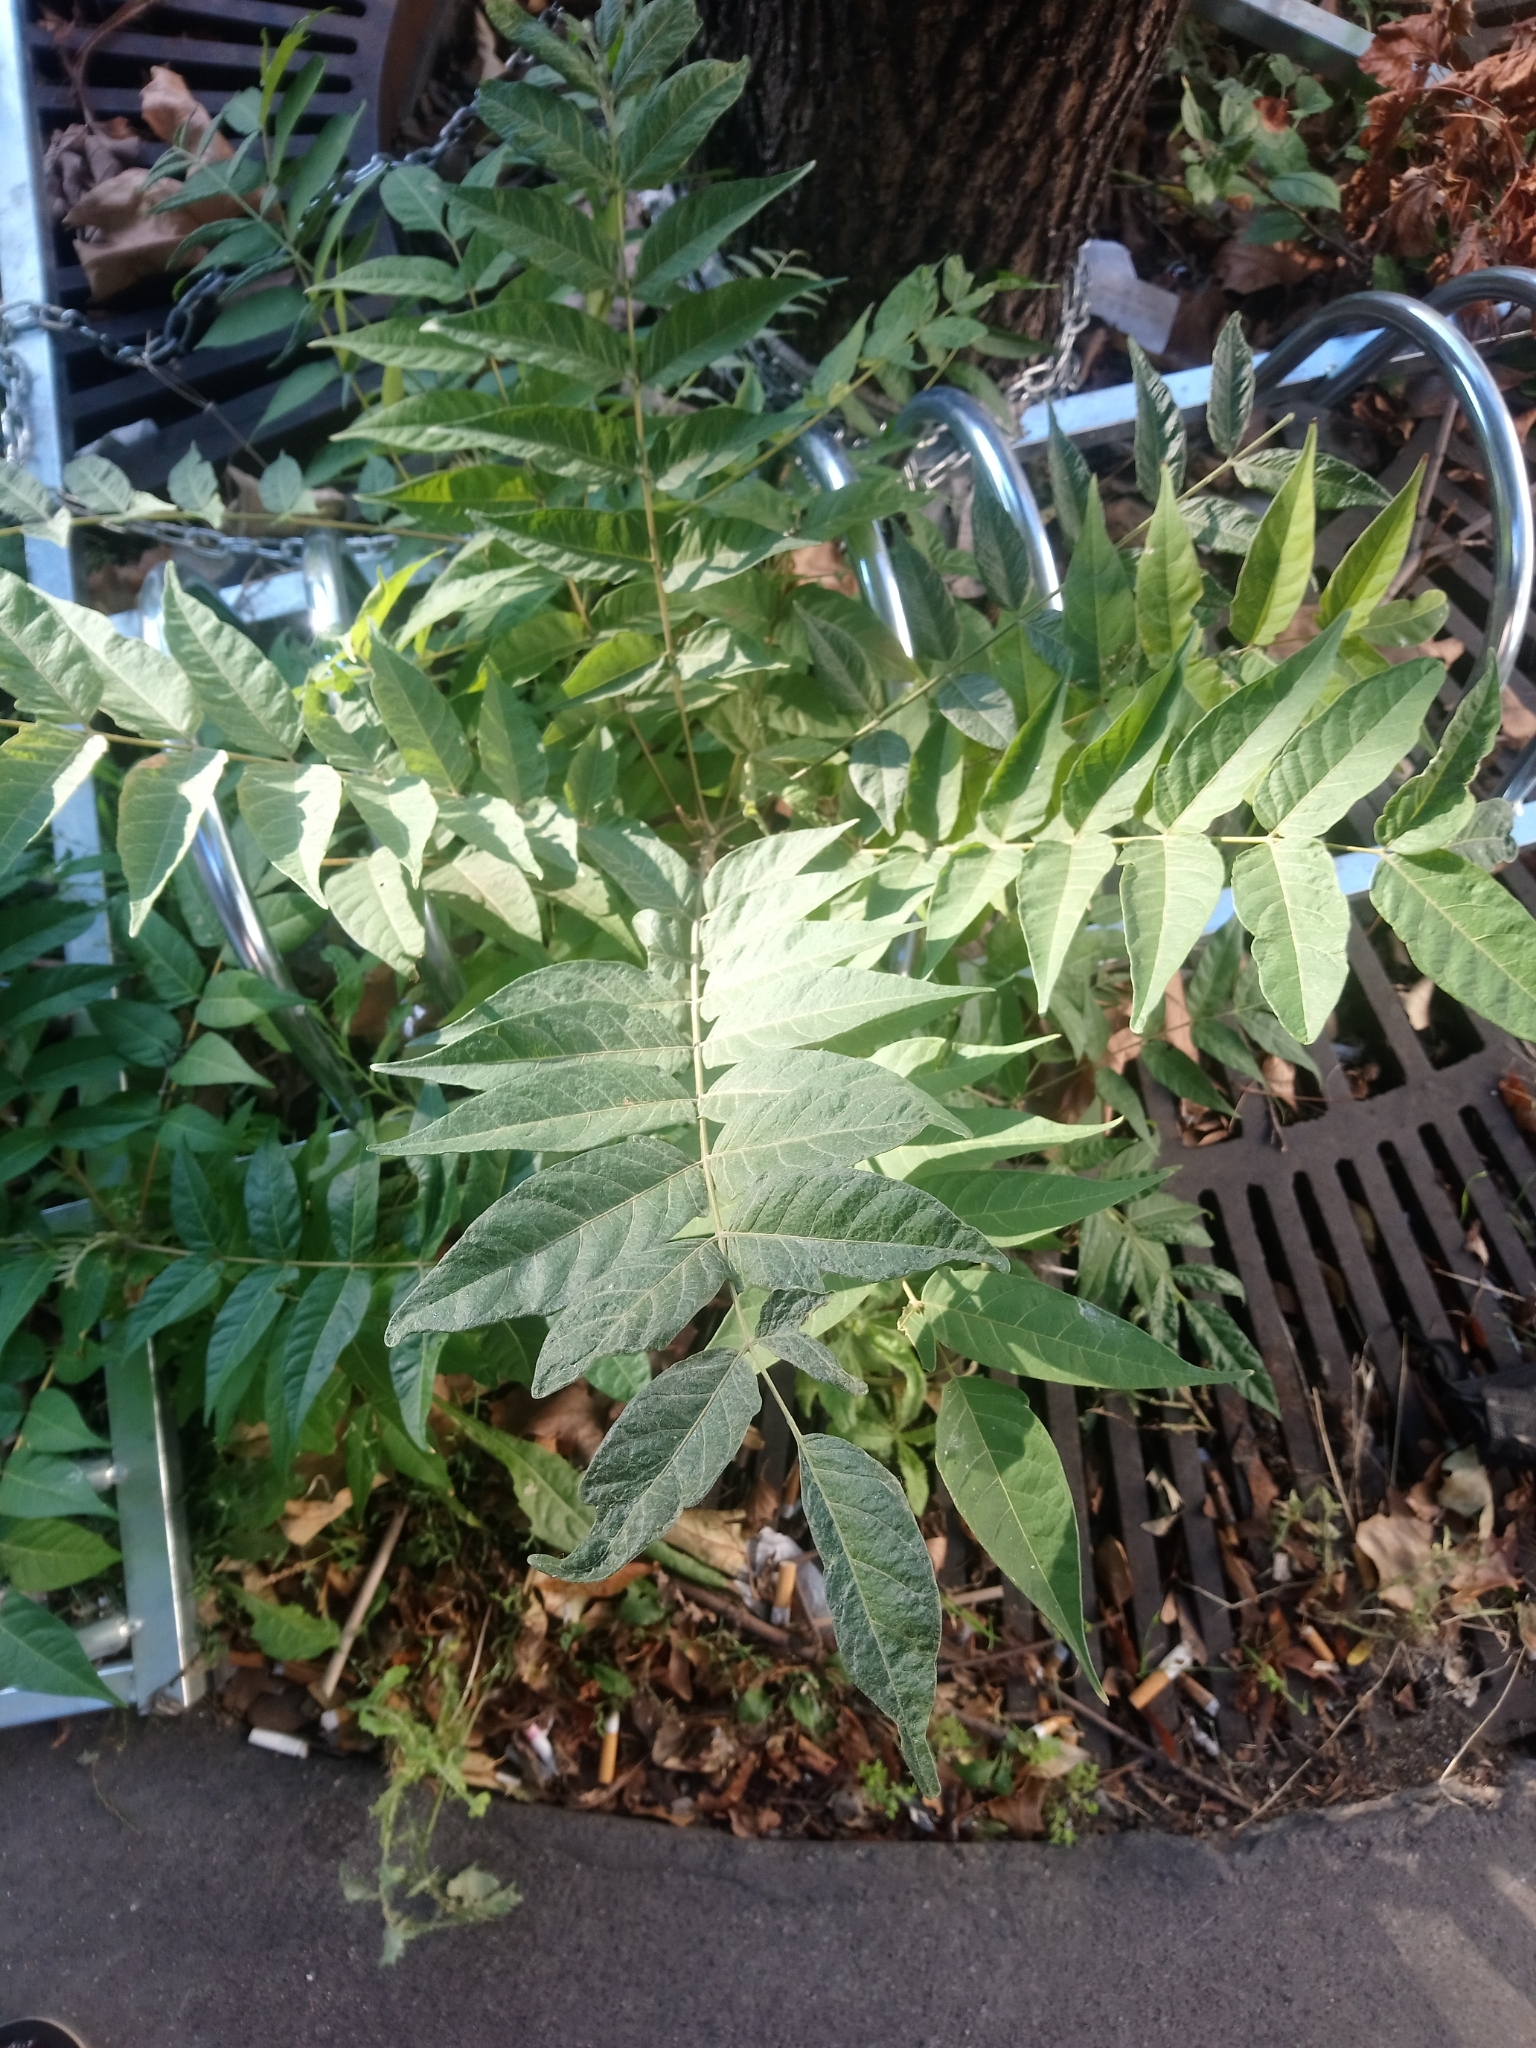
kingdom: Plantae
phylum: Tracheophyta
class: Magnoliopsida
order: Sapindales
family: Simaroubaceae
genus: Ailanthus
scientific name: Ailanthus altissima
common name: Tree-of-heaven
